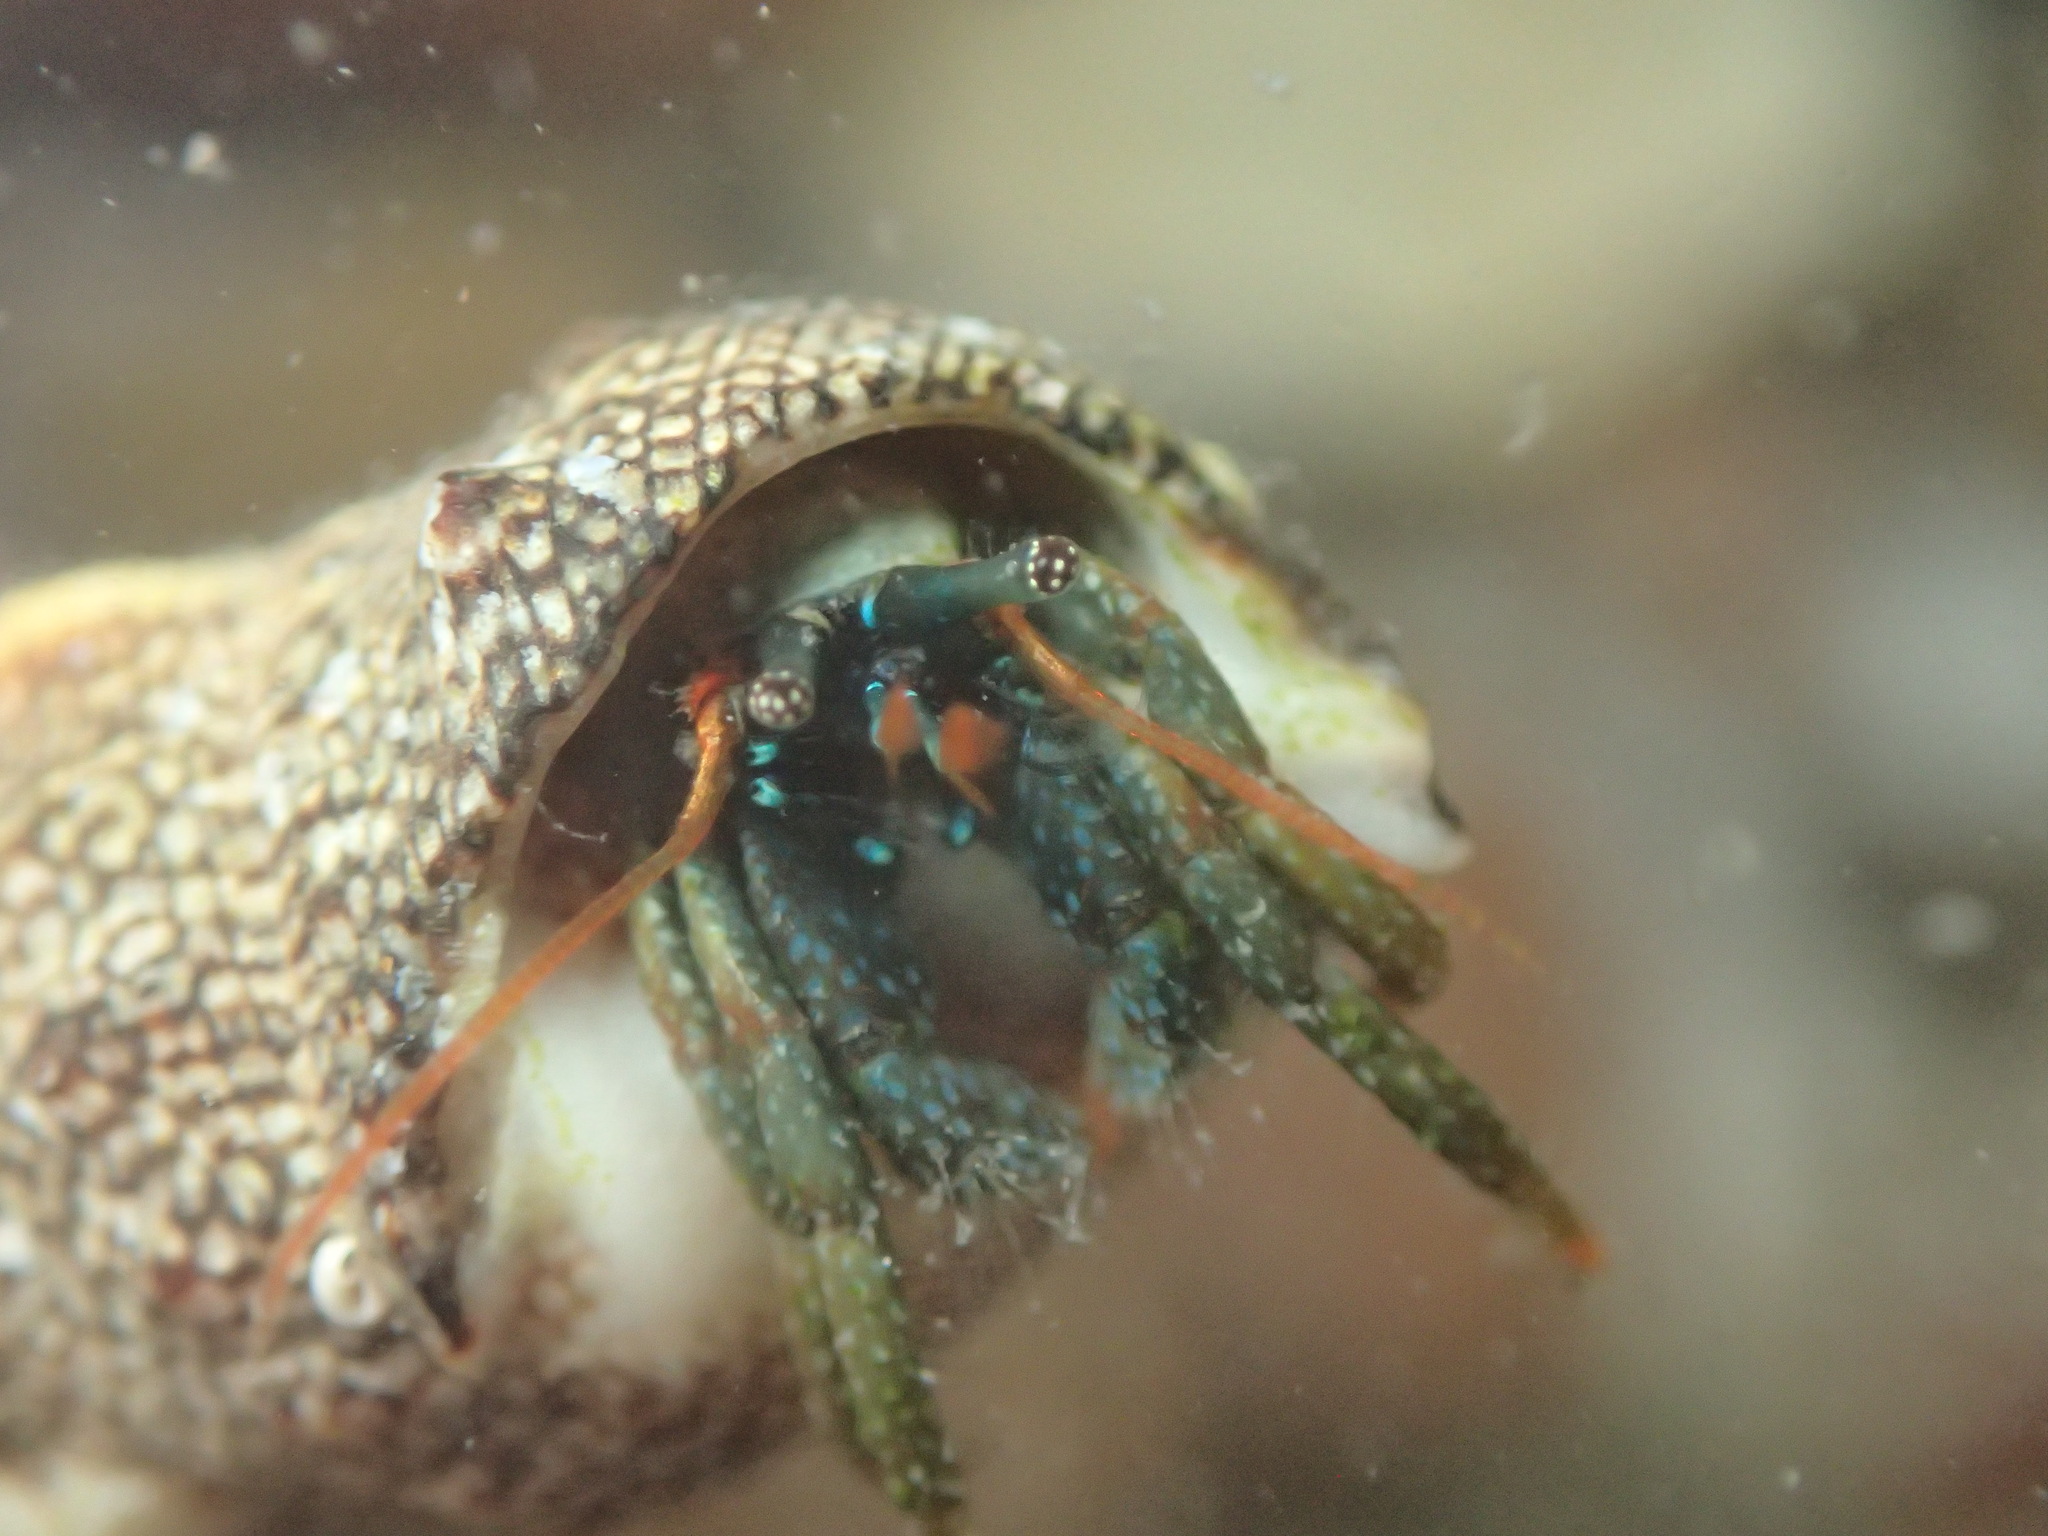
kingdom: Animalia
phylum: Arthropoda
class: Malacostraca
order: Decapoda
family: Diogenidae
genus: Clibanarius
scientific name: Clibanarius digueti
